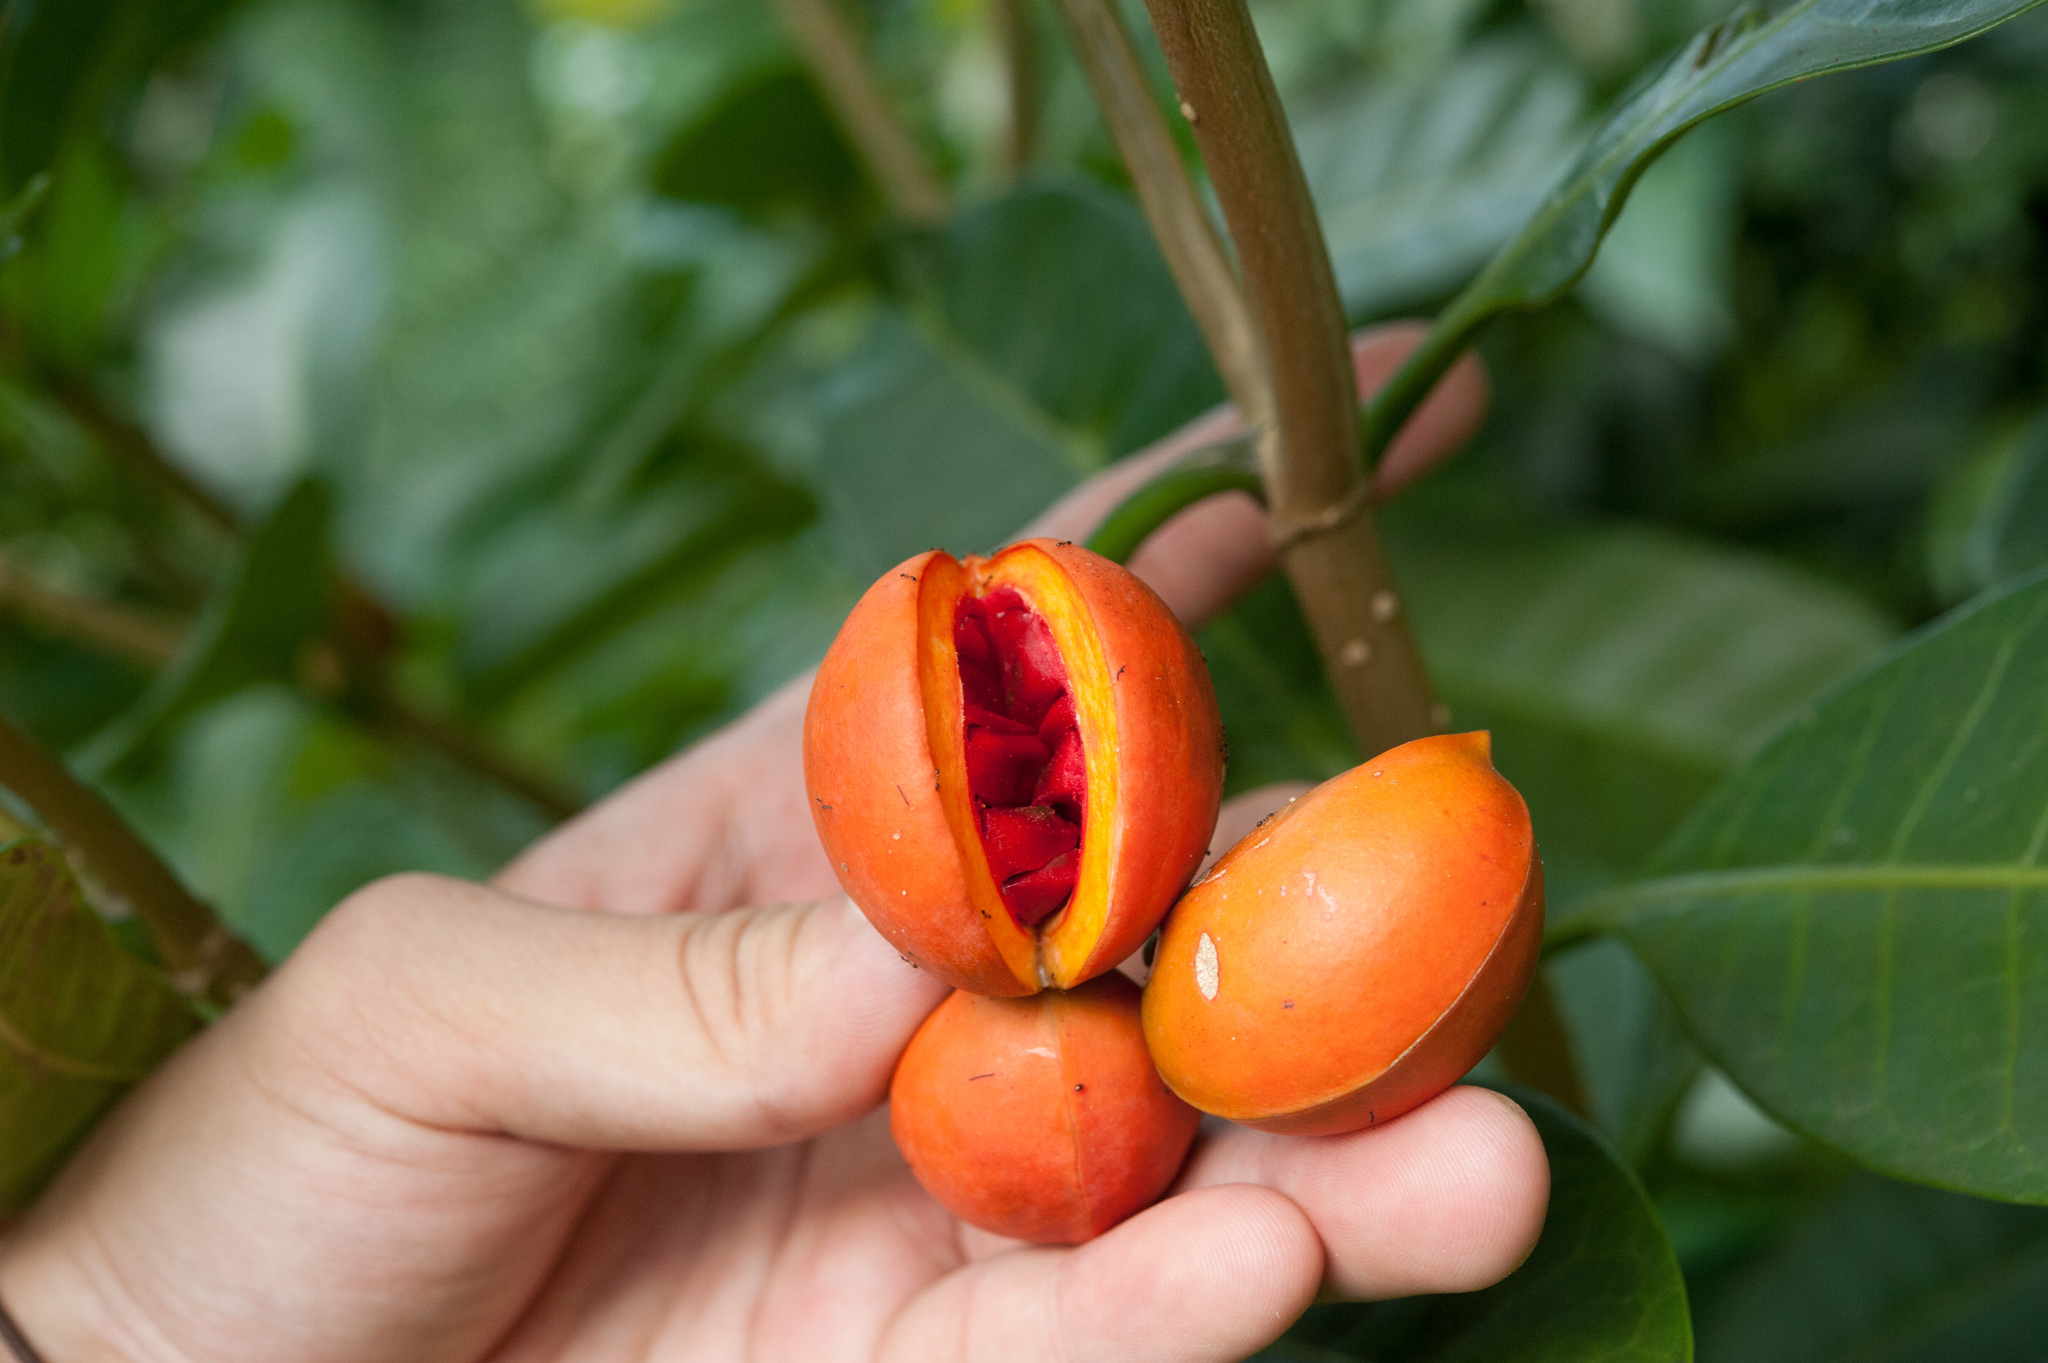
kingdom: Plantae
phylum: Tracheophyta
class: Magnoliopsida
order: Gentianales
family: Apocynaceae
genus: Tabernaemontana
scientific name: Tabernaemontana pandacaqui
